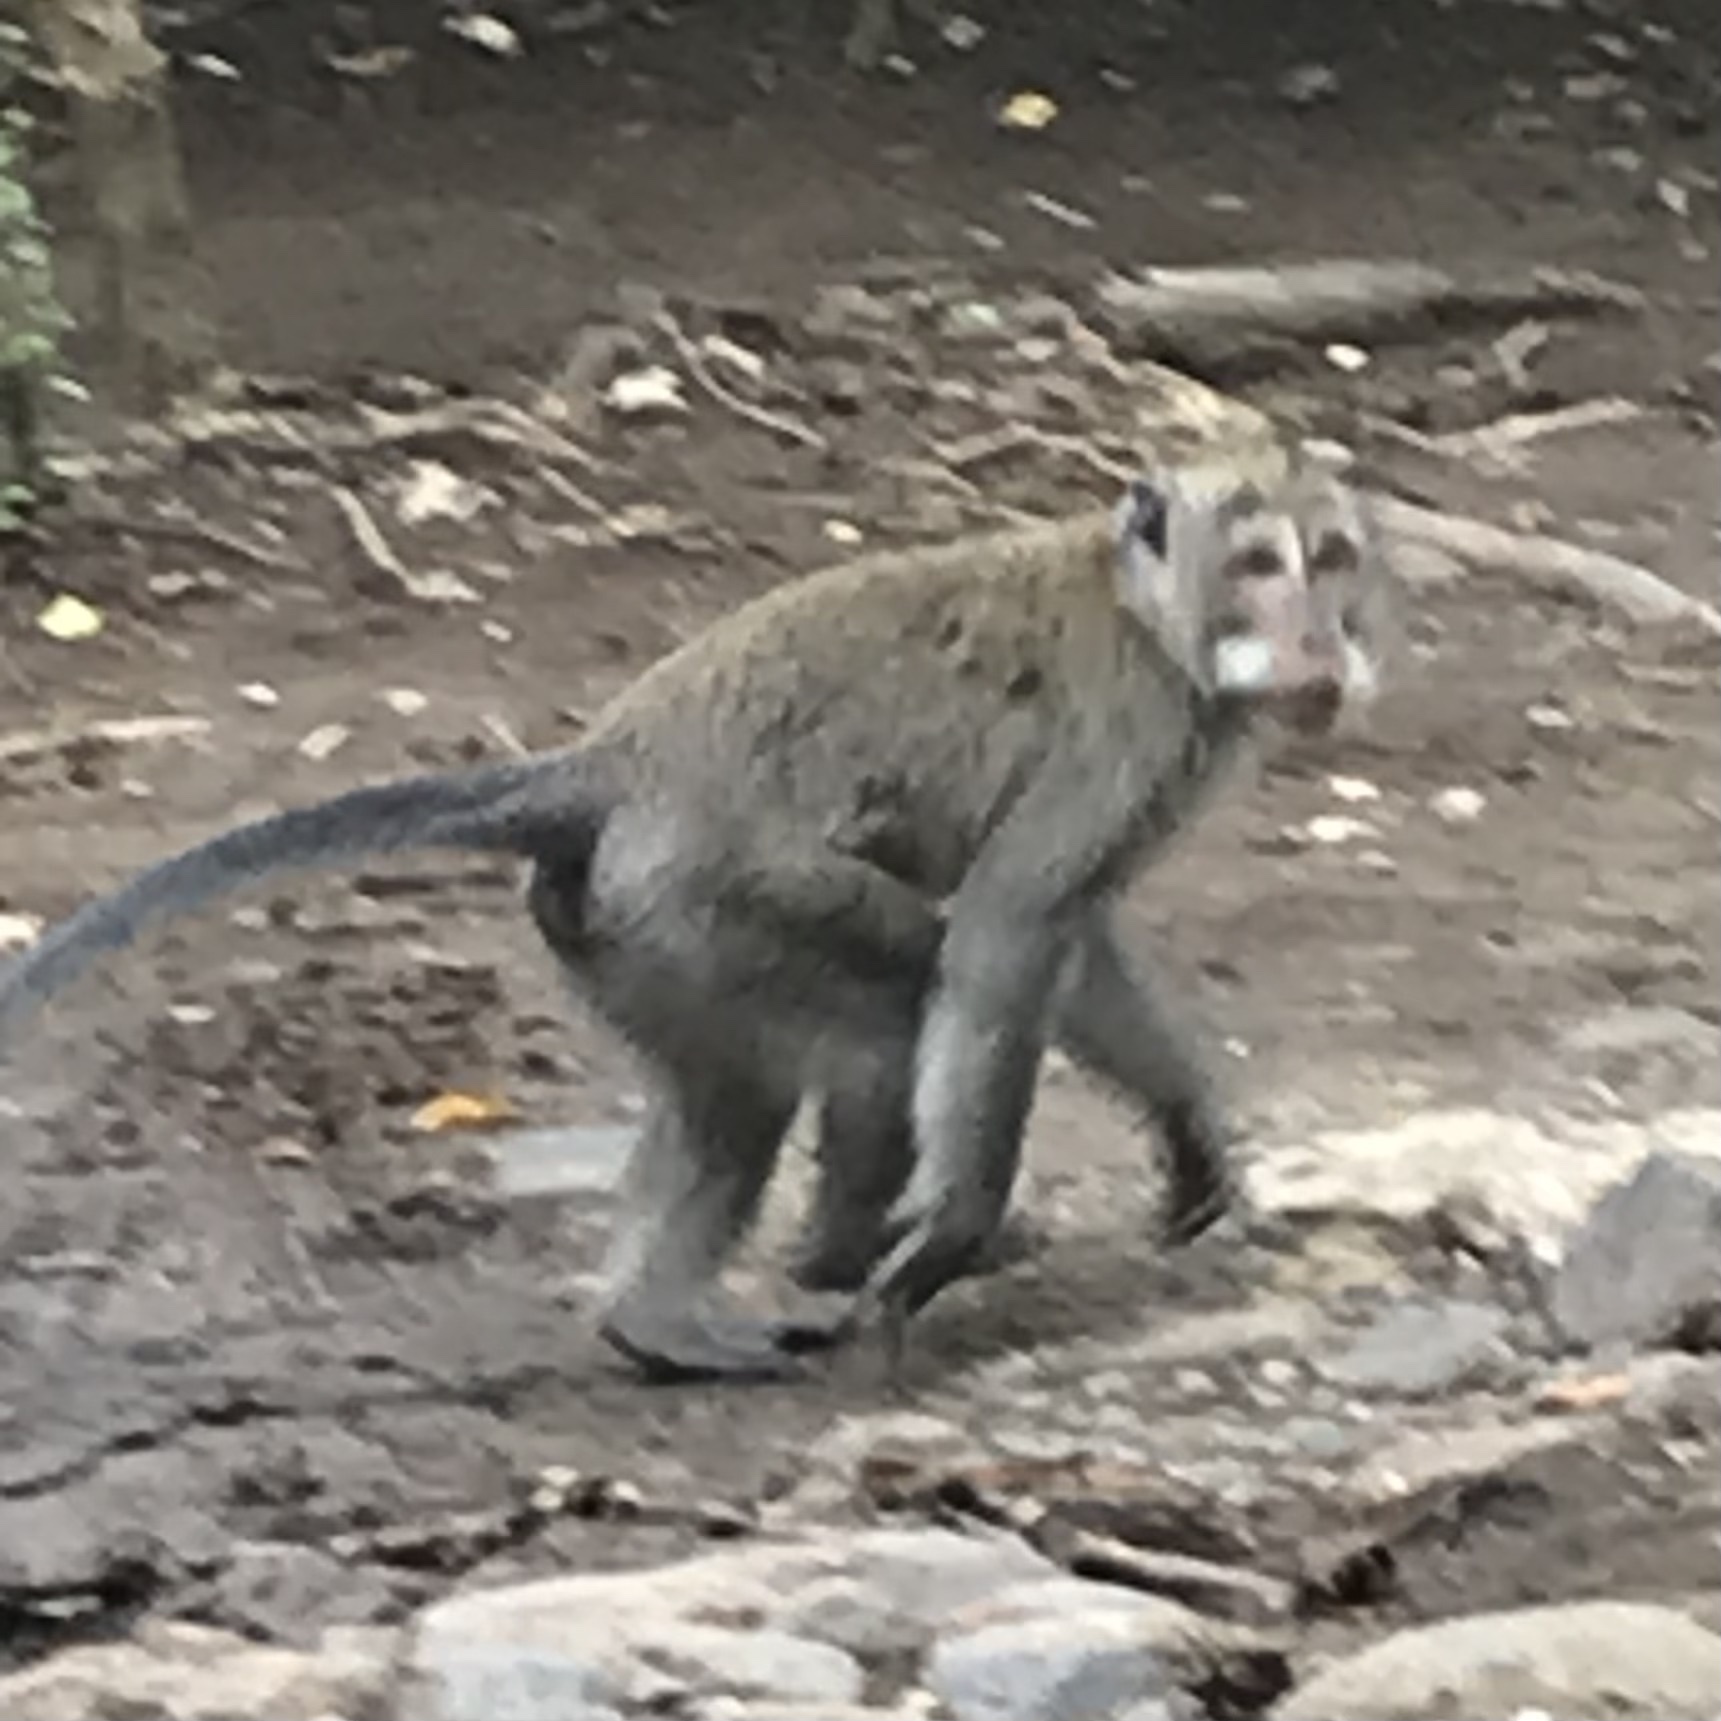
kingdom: Animalia
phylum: Chordata
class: Mammalia
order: Primates
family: Cercopithecidae
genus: Macaca
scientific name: Macaca fascicularis
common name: Crab-eating macaque
